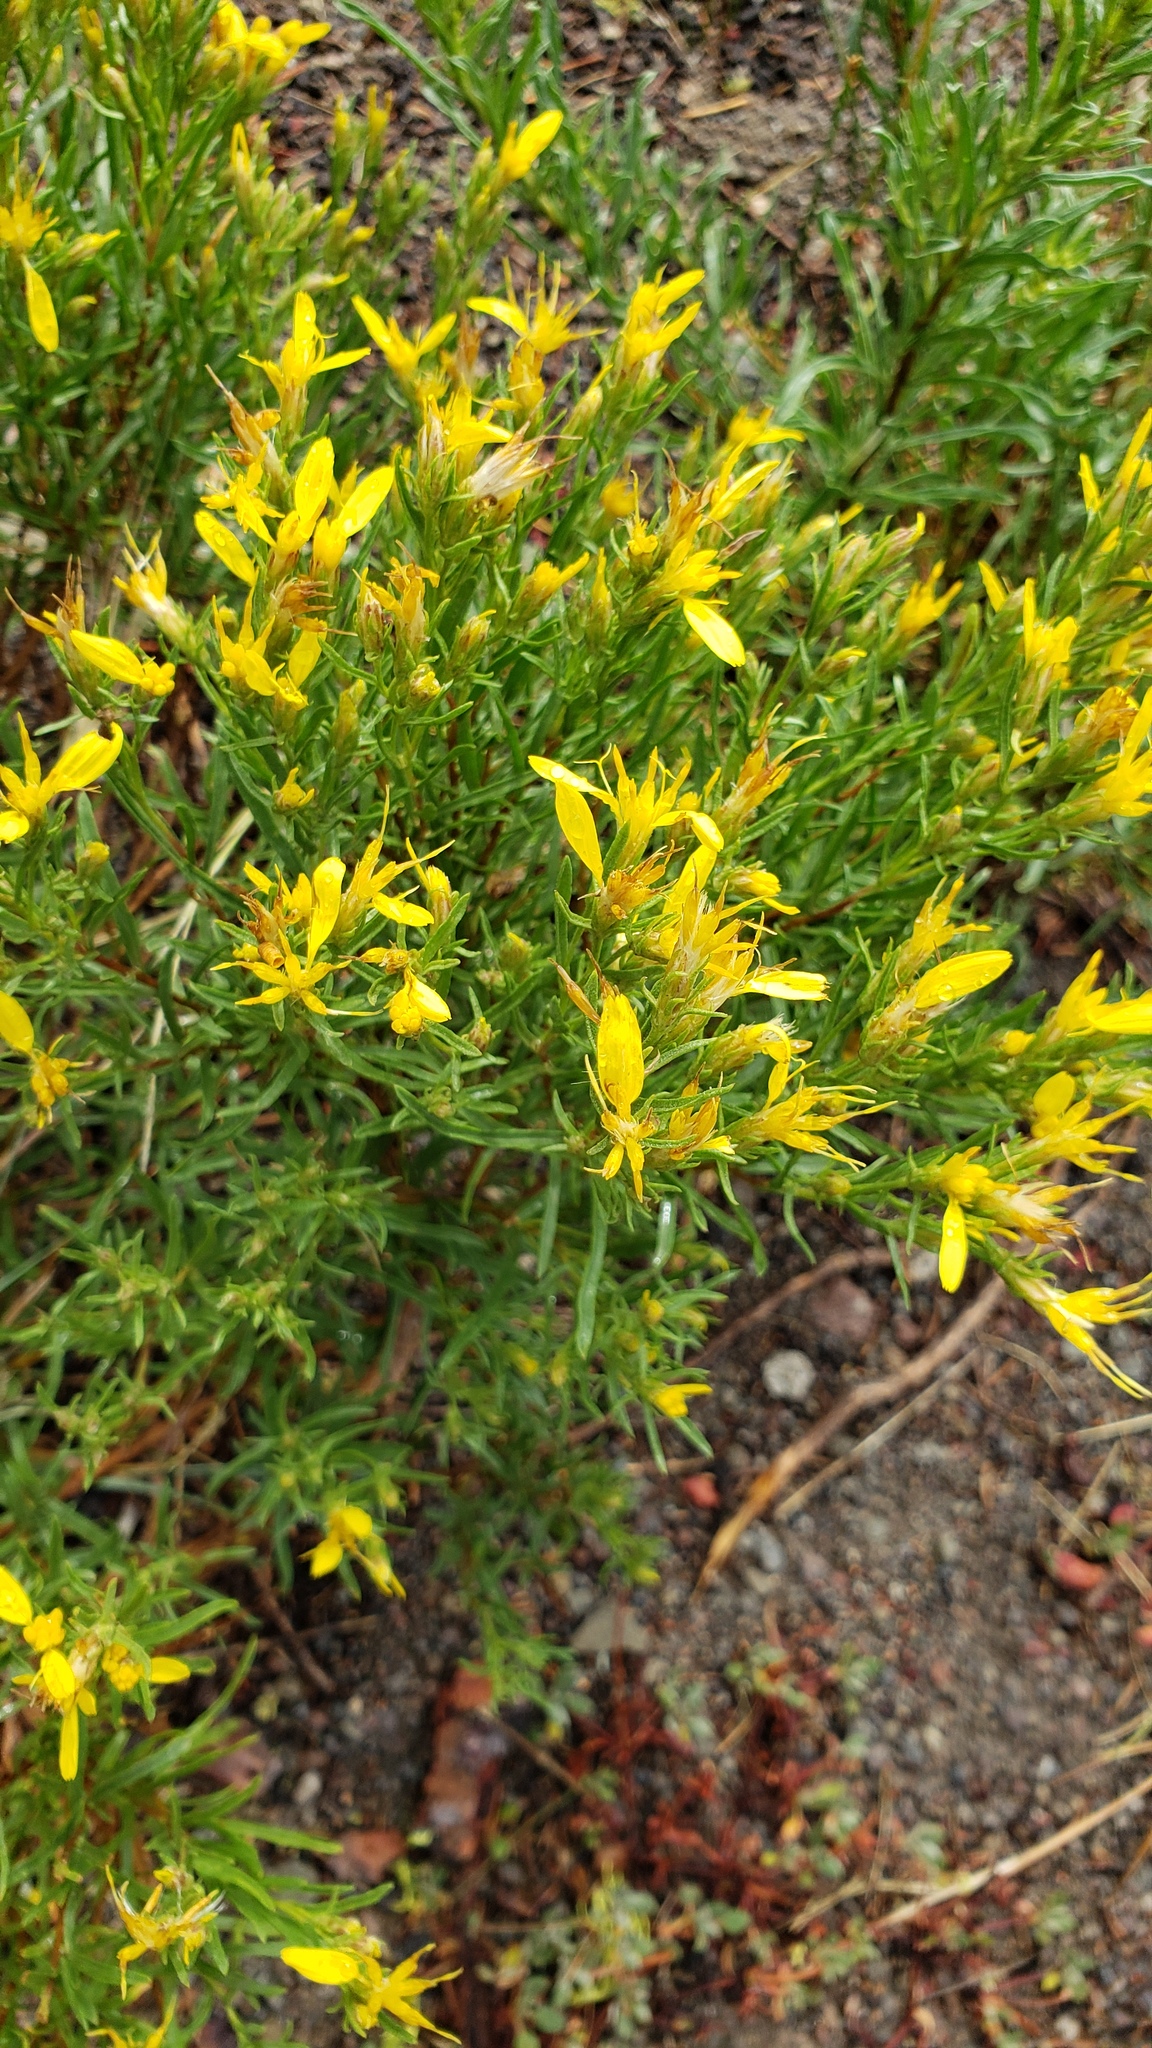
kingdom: Plantae
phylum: Tracheophyta
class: Magnoliopsida
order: Asterales
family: Asteraceae
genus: Ericameria
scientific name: Ericameria nauseosa
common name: Rubber rabbitbrush
